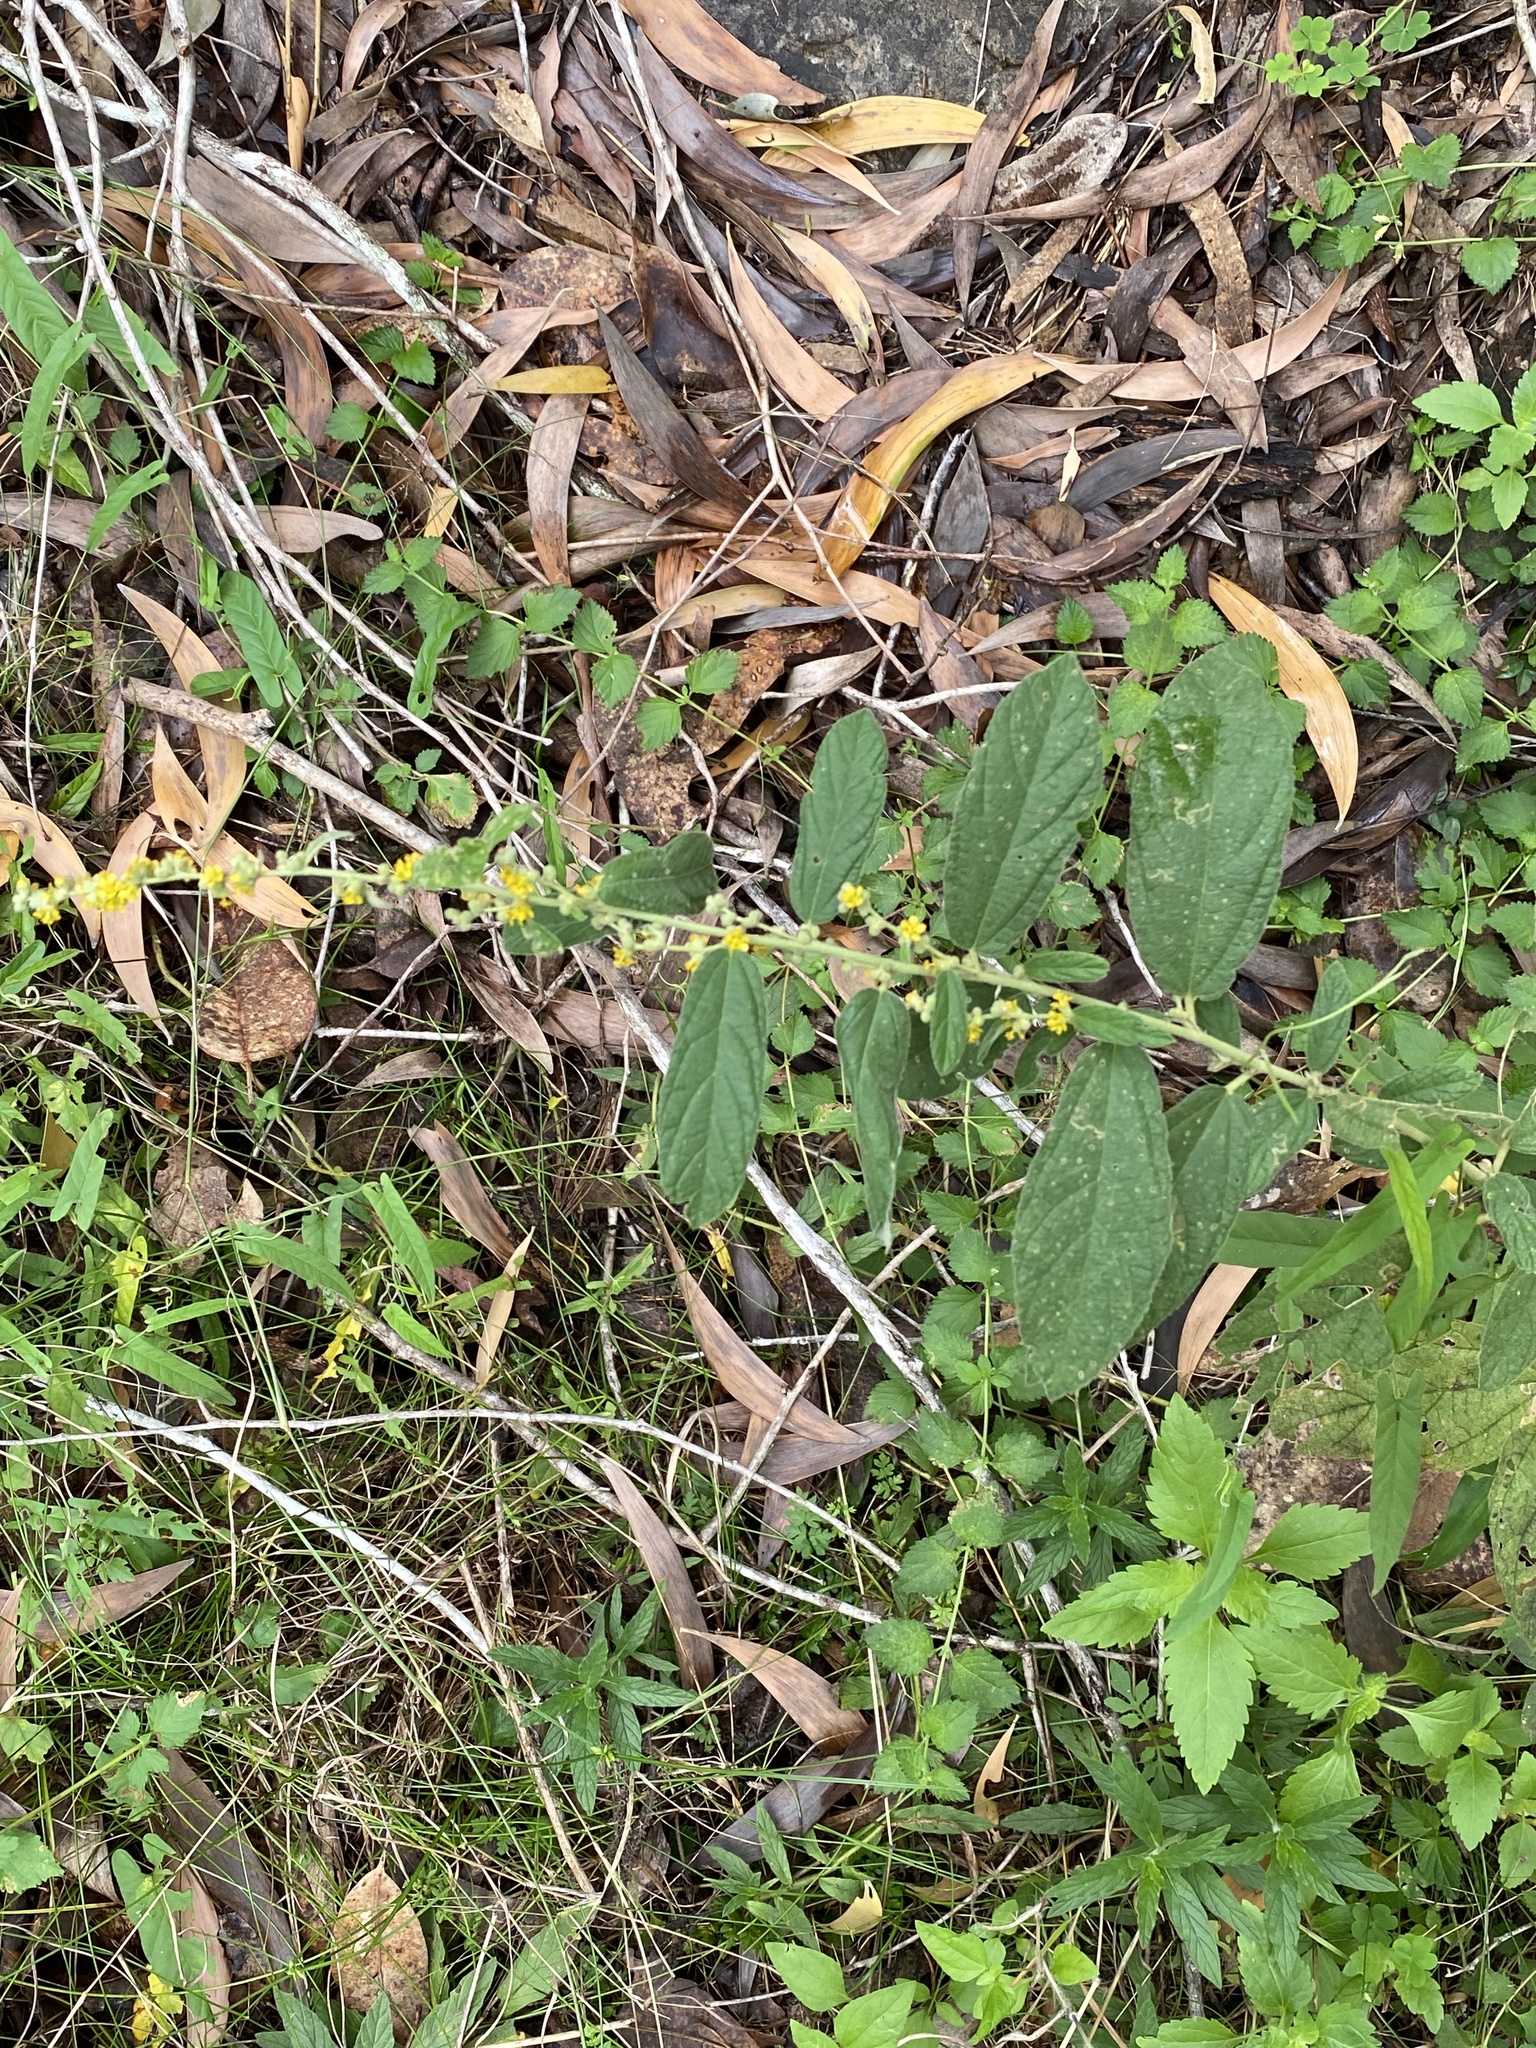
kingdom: Plantae
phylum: Tracheophyta
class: Magnoliopsida
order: Malvales
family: Malvaceae
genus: Sida
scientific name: Sida hackettiana
